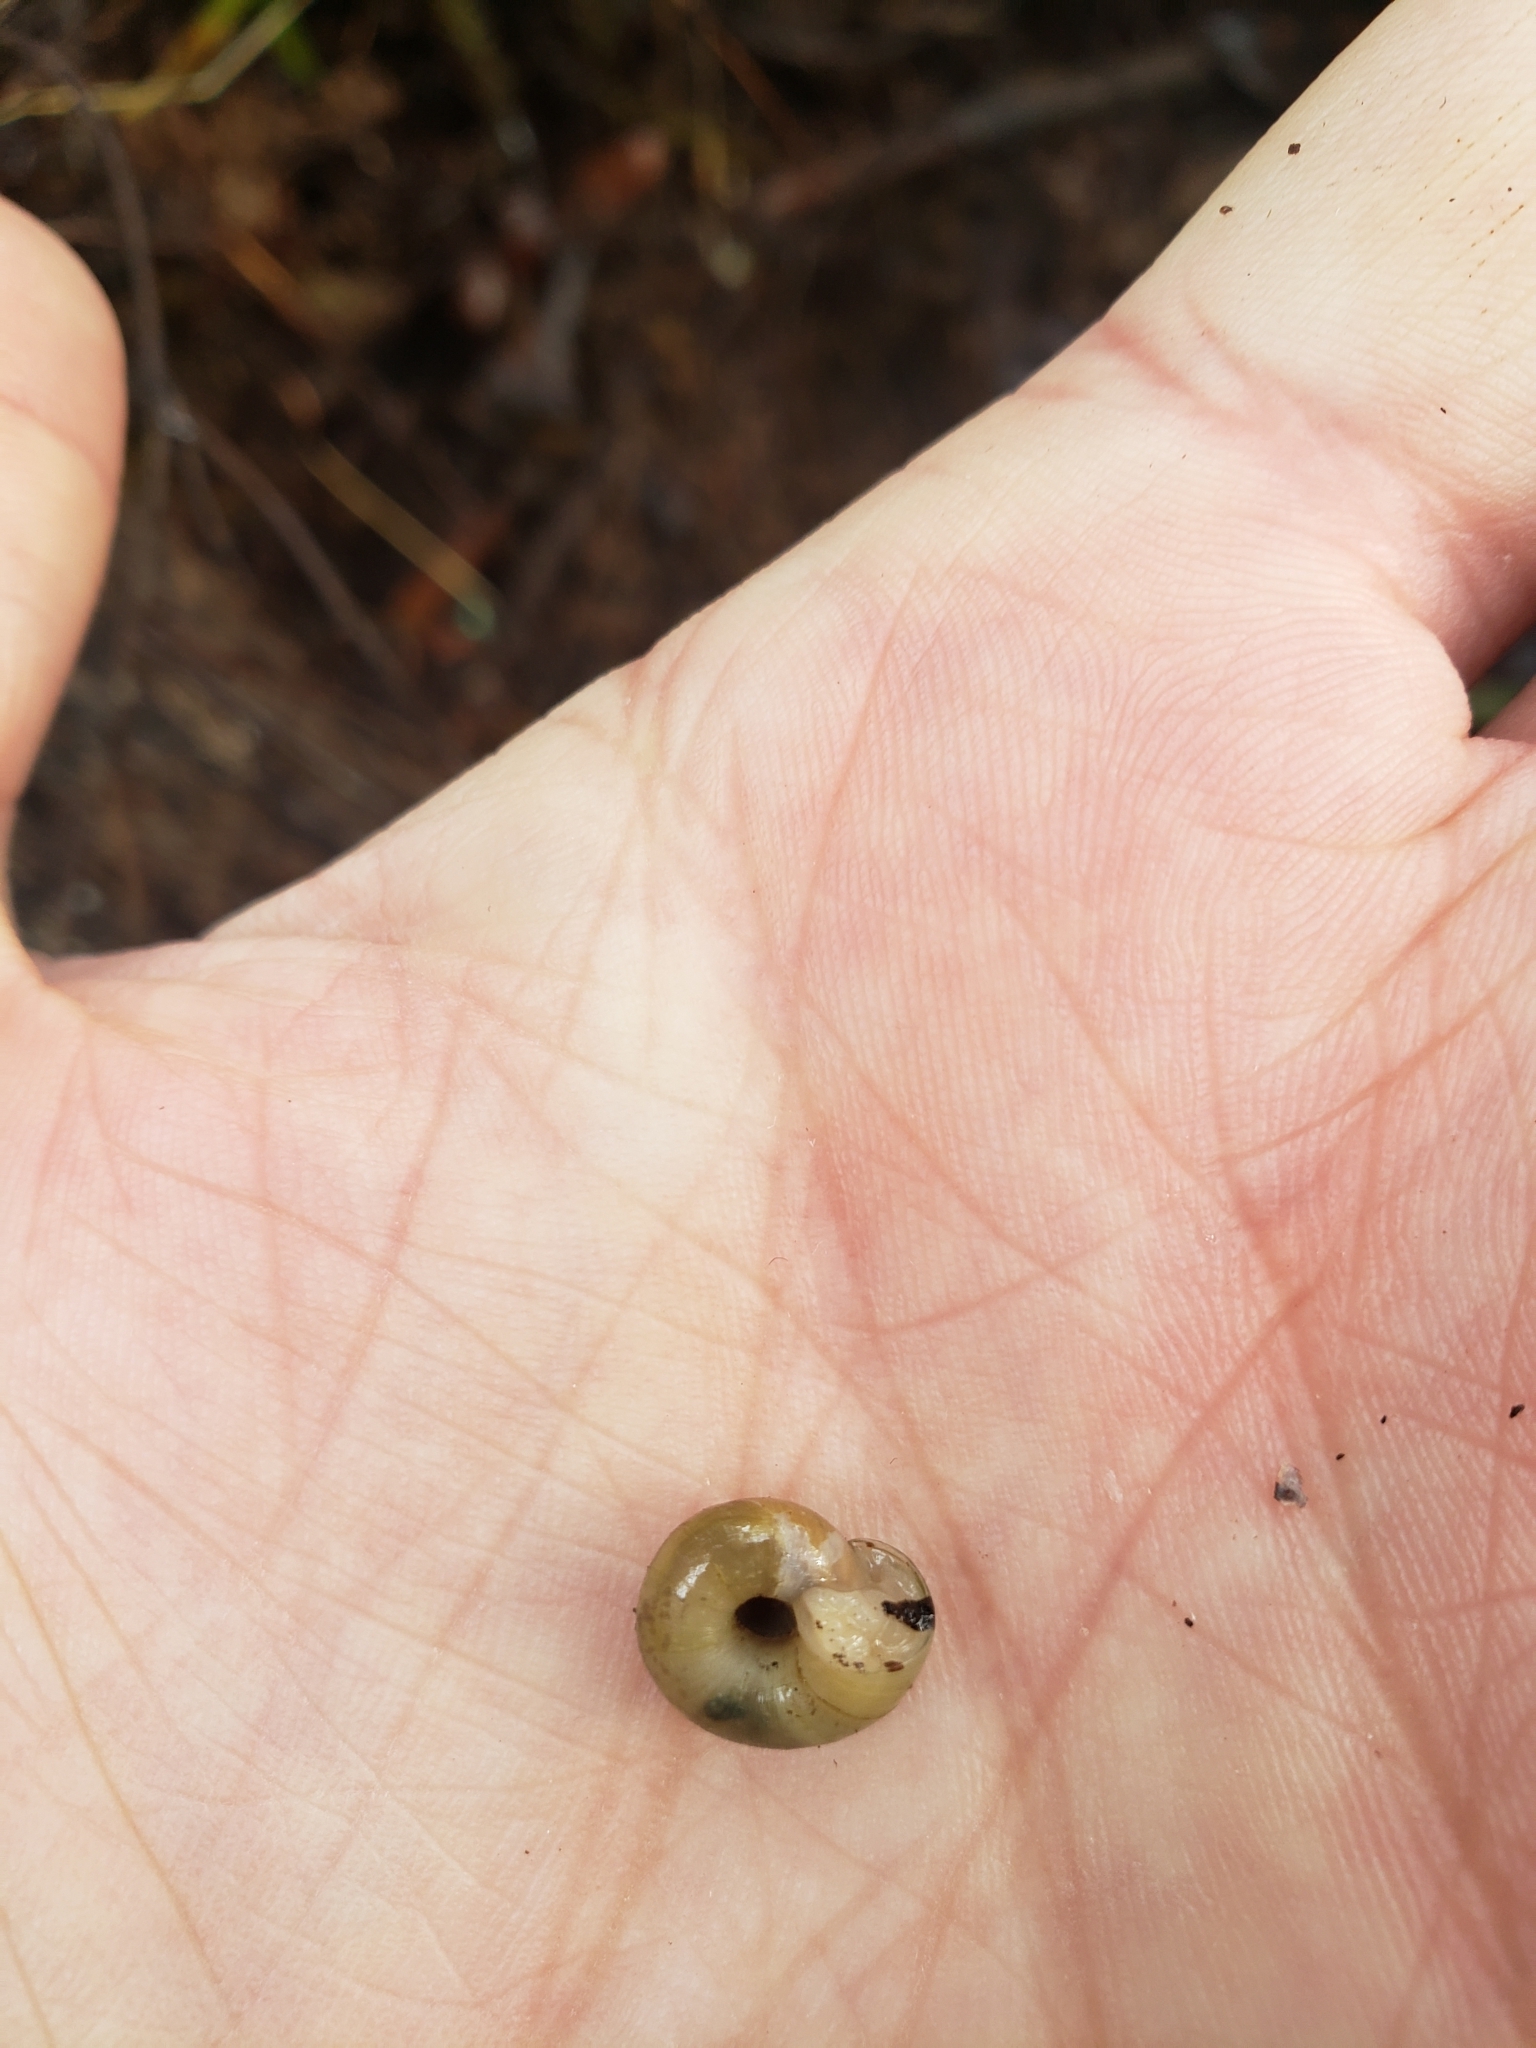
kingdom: Animalia
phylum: Mollusca
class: Gastropoda
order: Stylommatophora
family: Polygyridae
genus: Vespericola
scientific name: Vespericola columbianus
